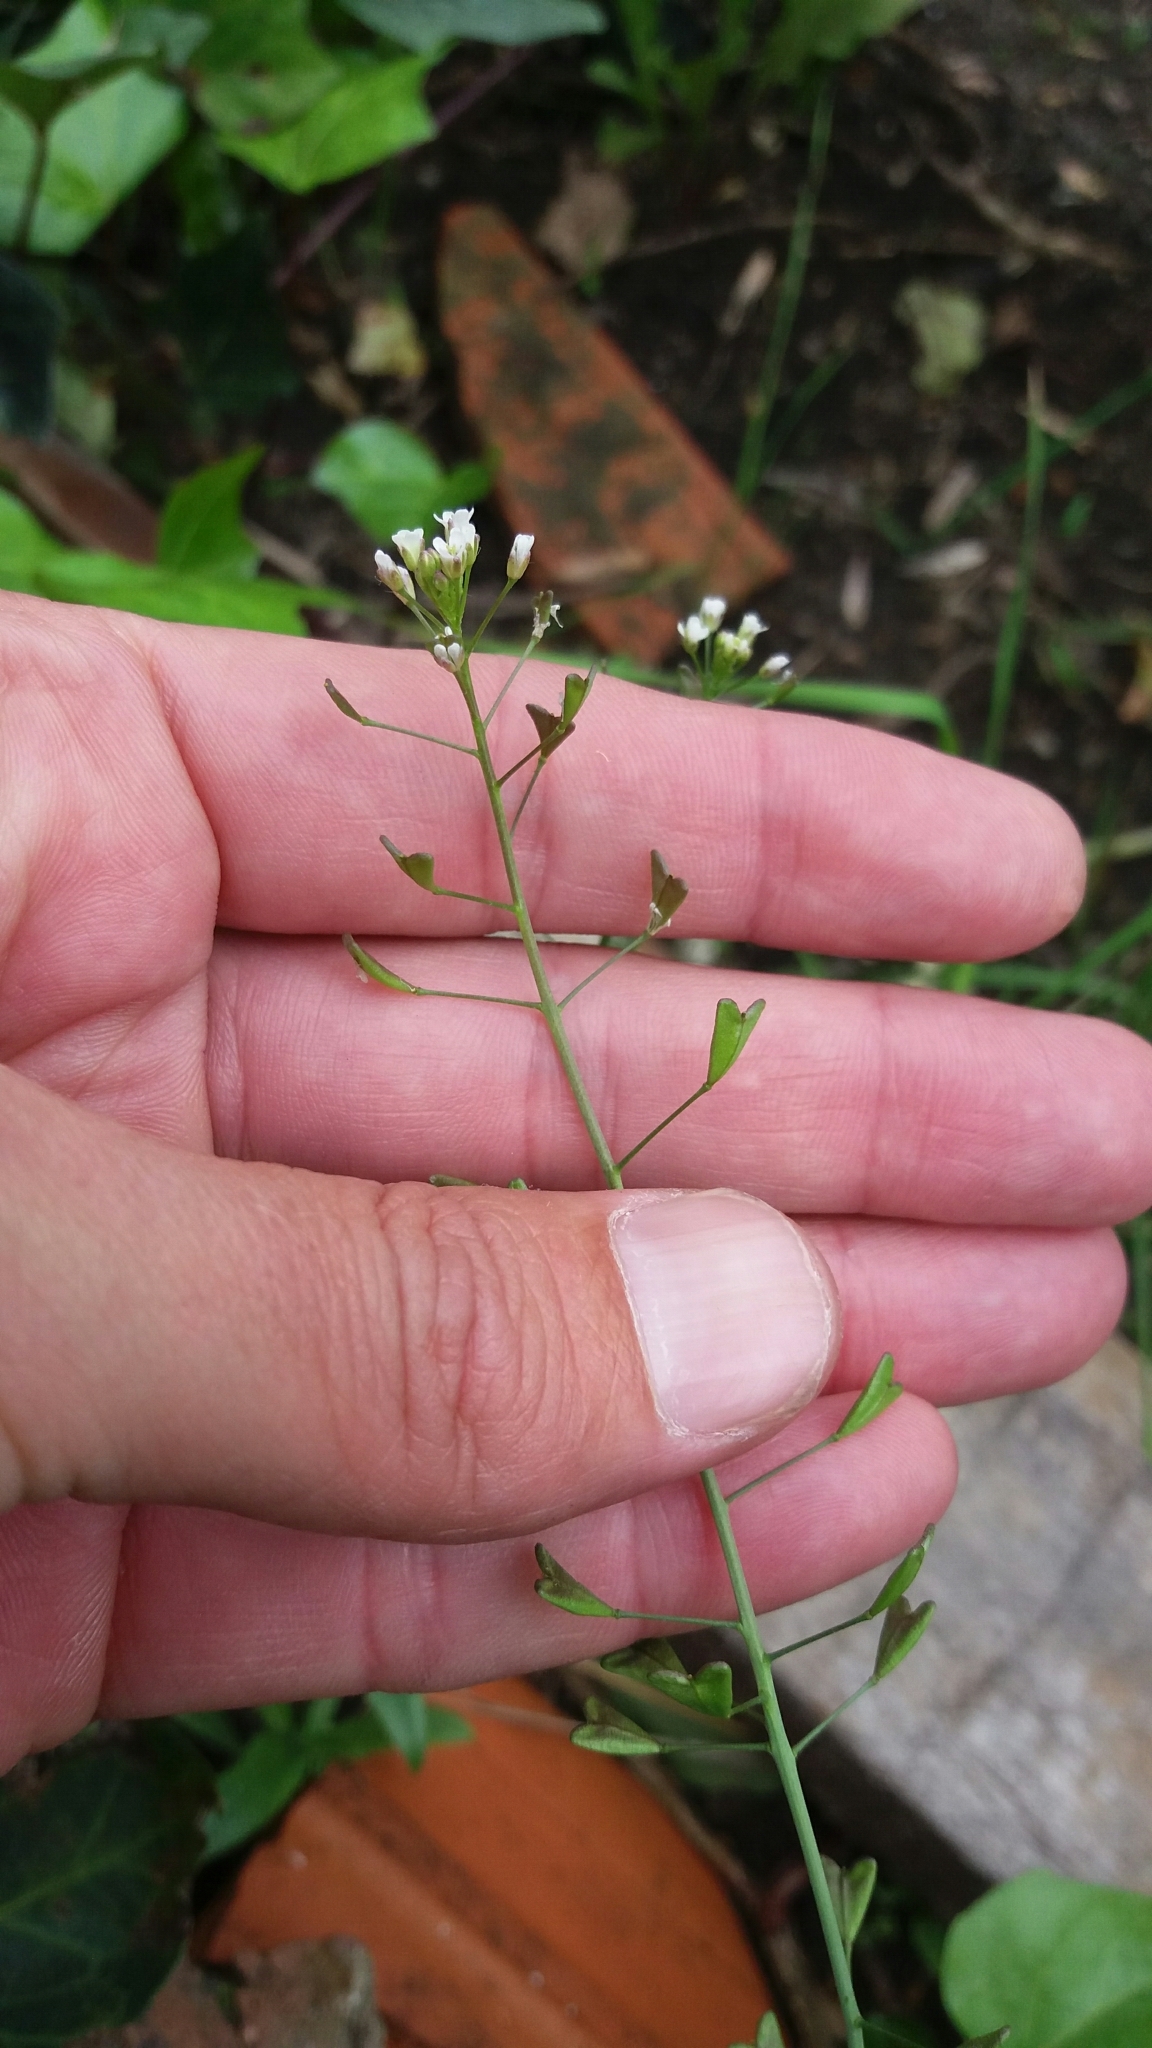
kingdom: Plantae
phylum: Tracheophyta
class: Magnoliopsida
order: Brassicales
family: Brassicaceae
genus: Capsella
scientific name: Capsella bursa-pastoris
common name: Shepherd's purse
